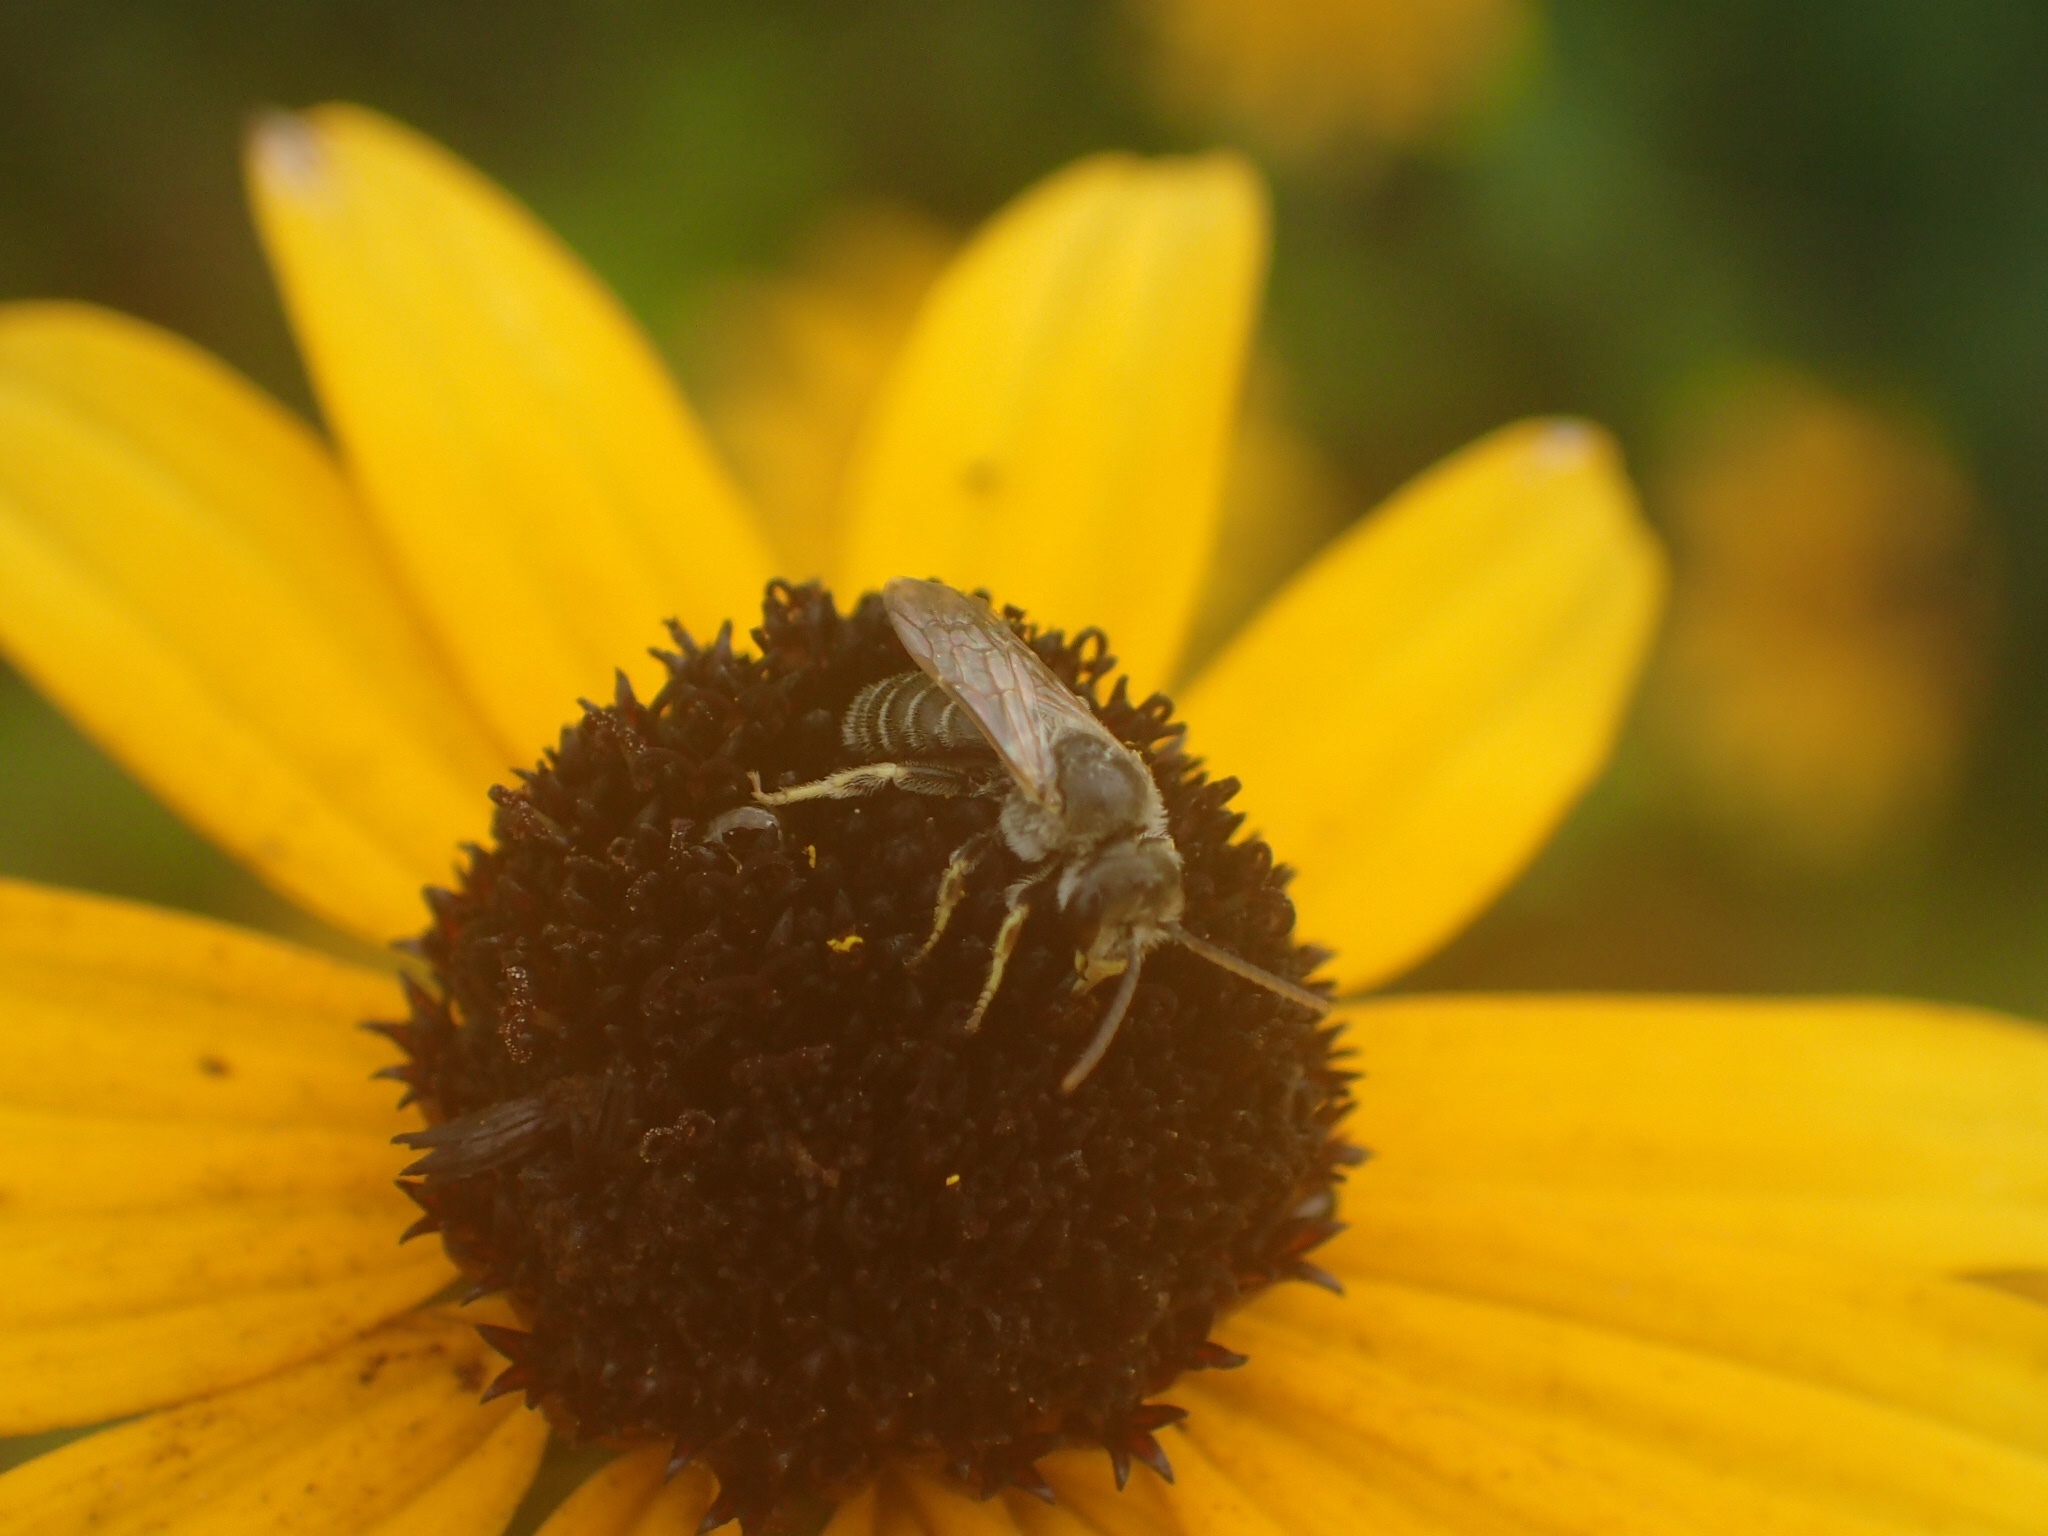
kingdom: Animalia
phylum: Arthropoda
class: Insecta
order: Hymenoptera
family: Halictidae
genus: Halictus
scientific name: Halictus ligatus
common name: Ligated furrow bee
